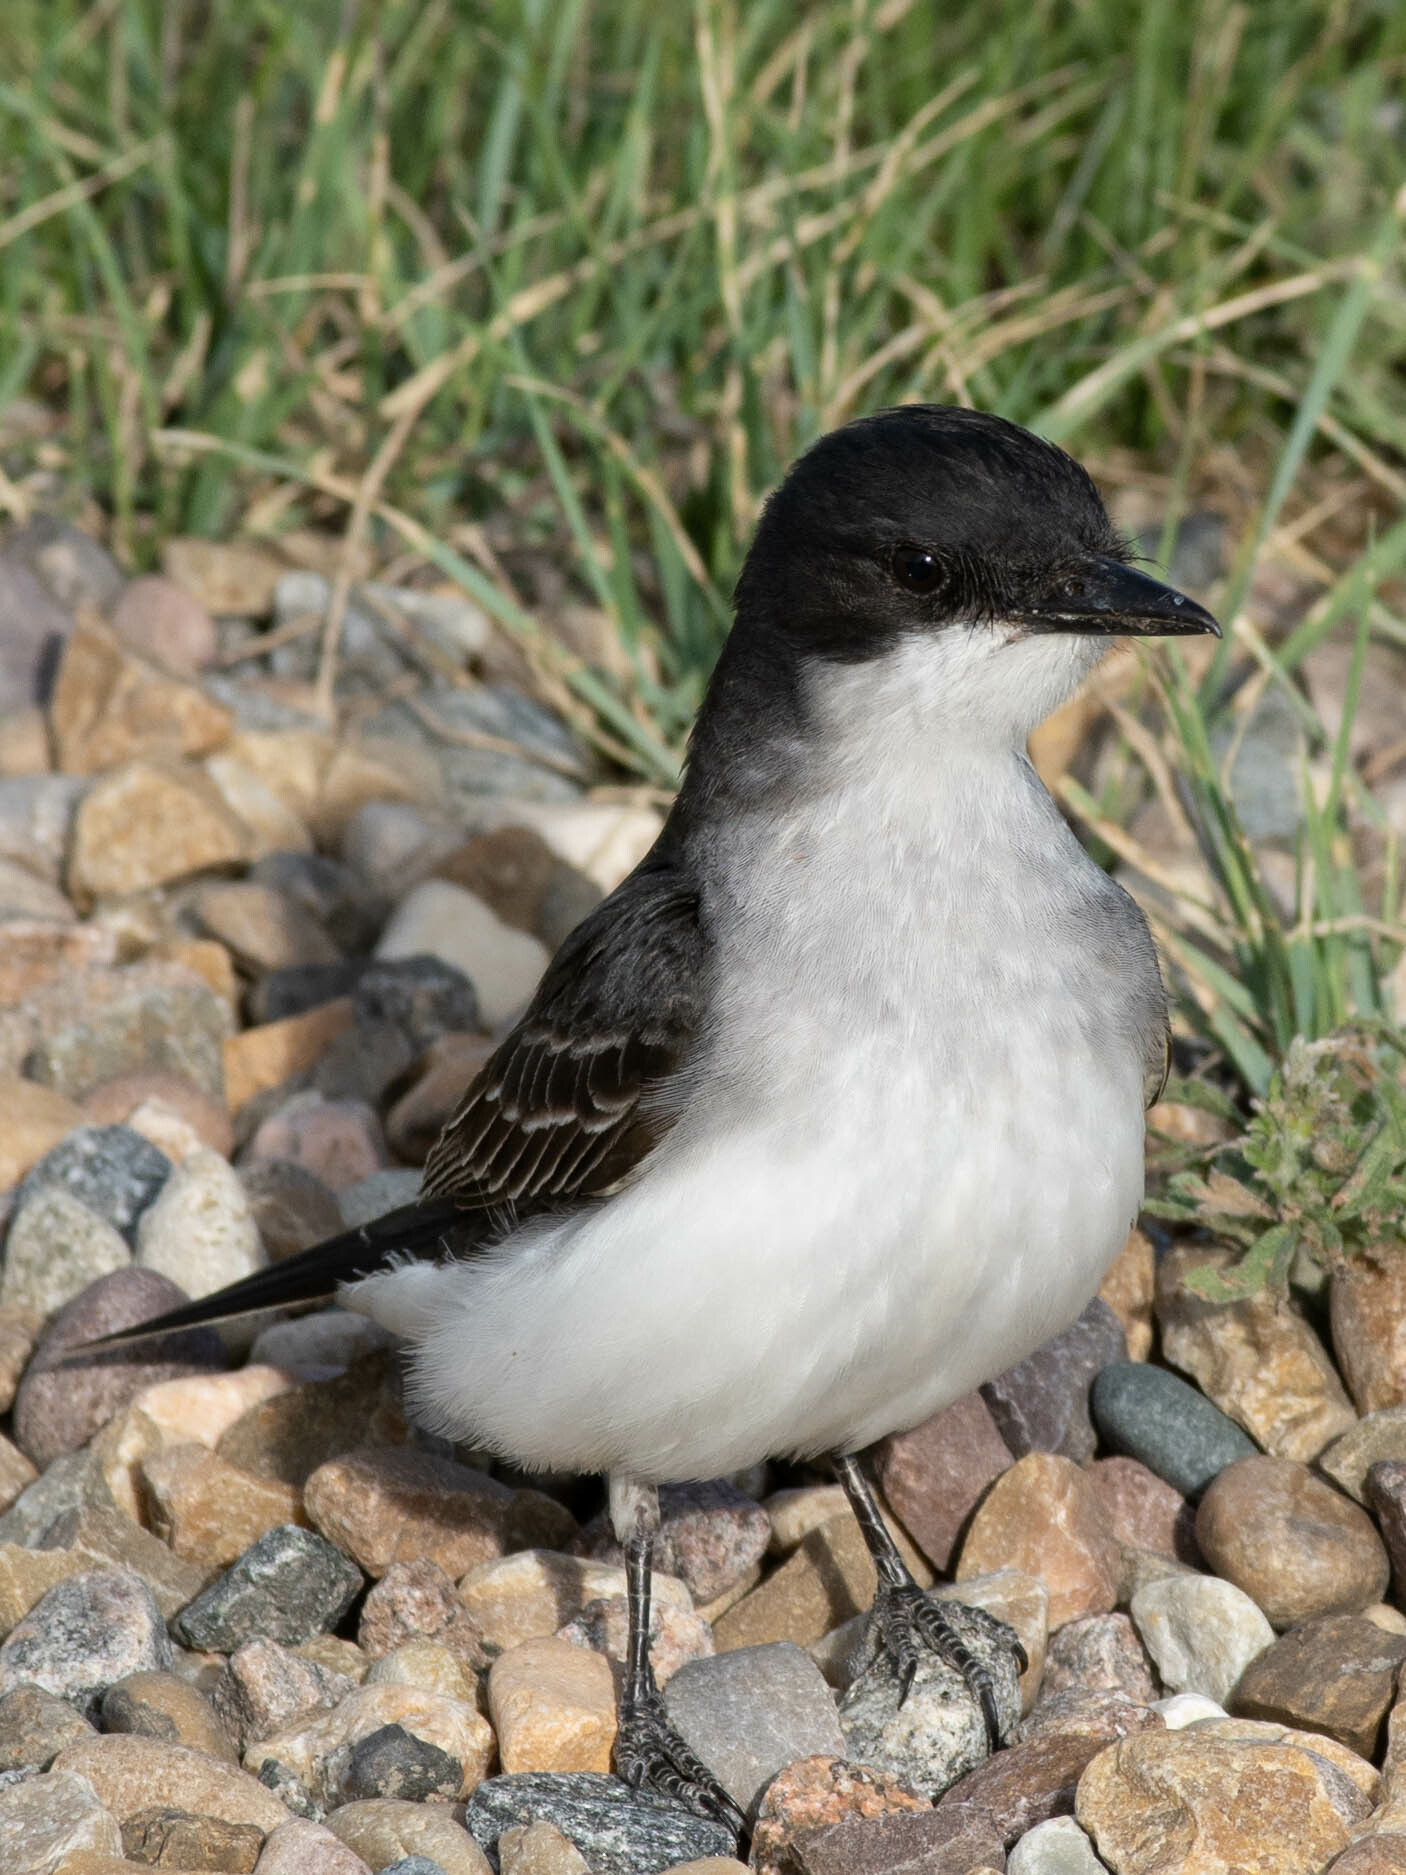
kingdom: Animalia
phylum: Chordata
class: Aves
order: Passeriformes
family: Tyrannidae
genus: Tyrannus
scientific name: Tyrannus tyrannus
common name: Eastern kingbird
